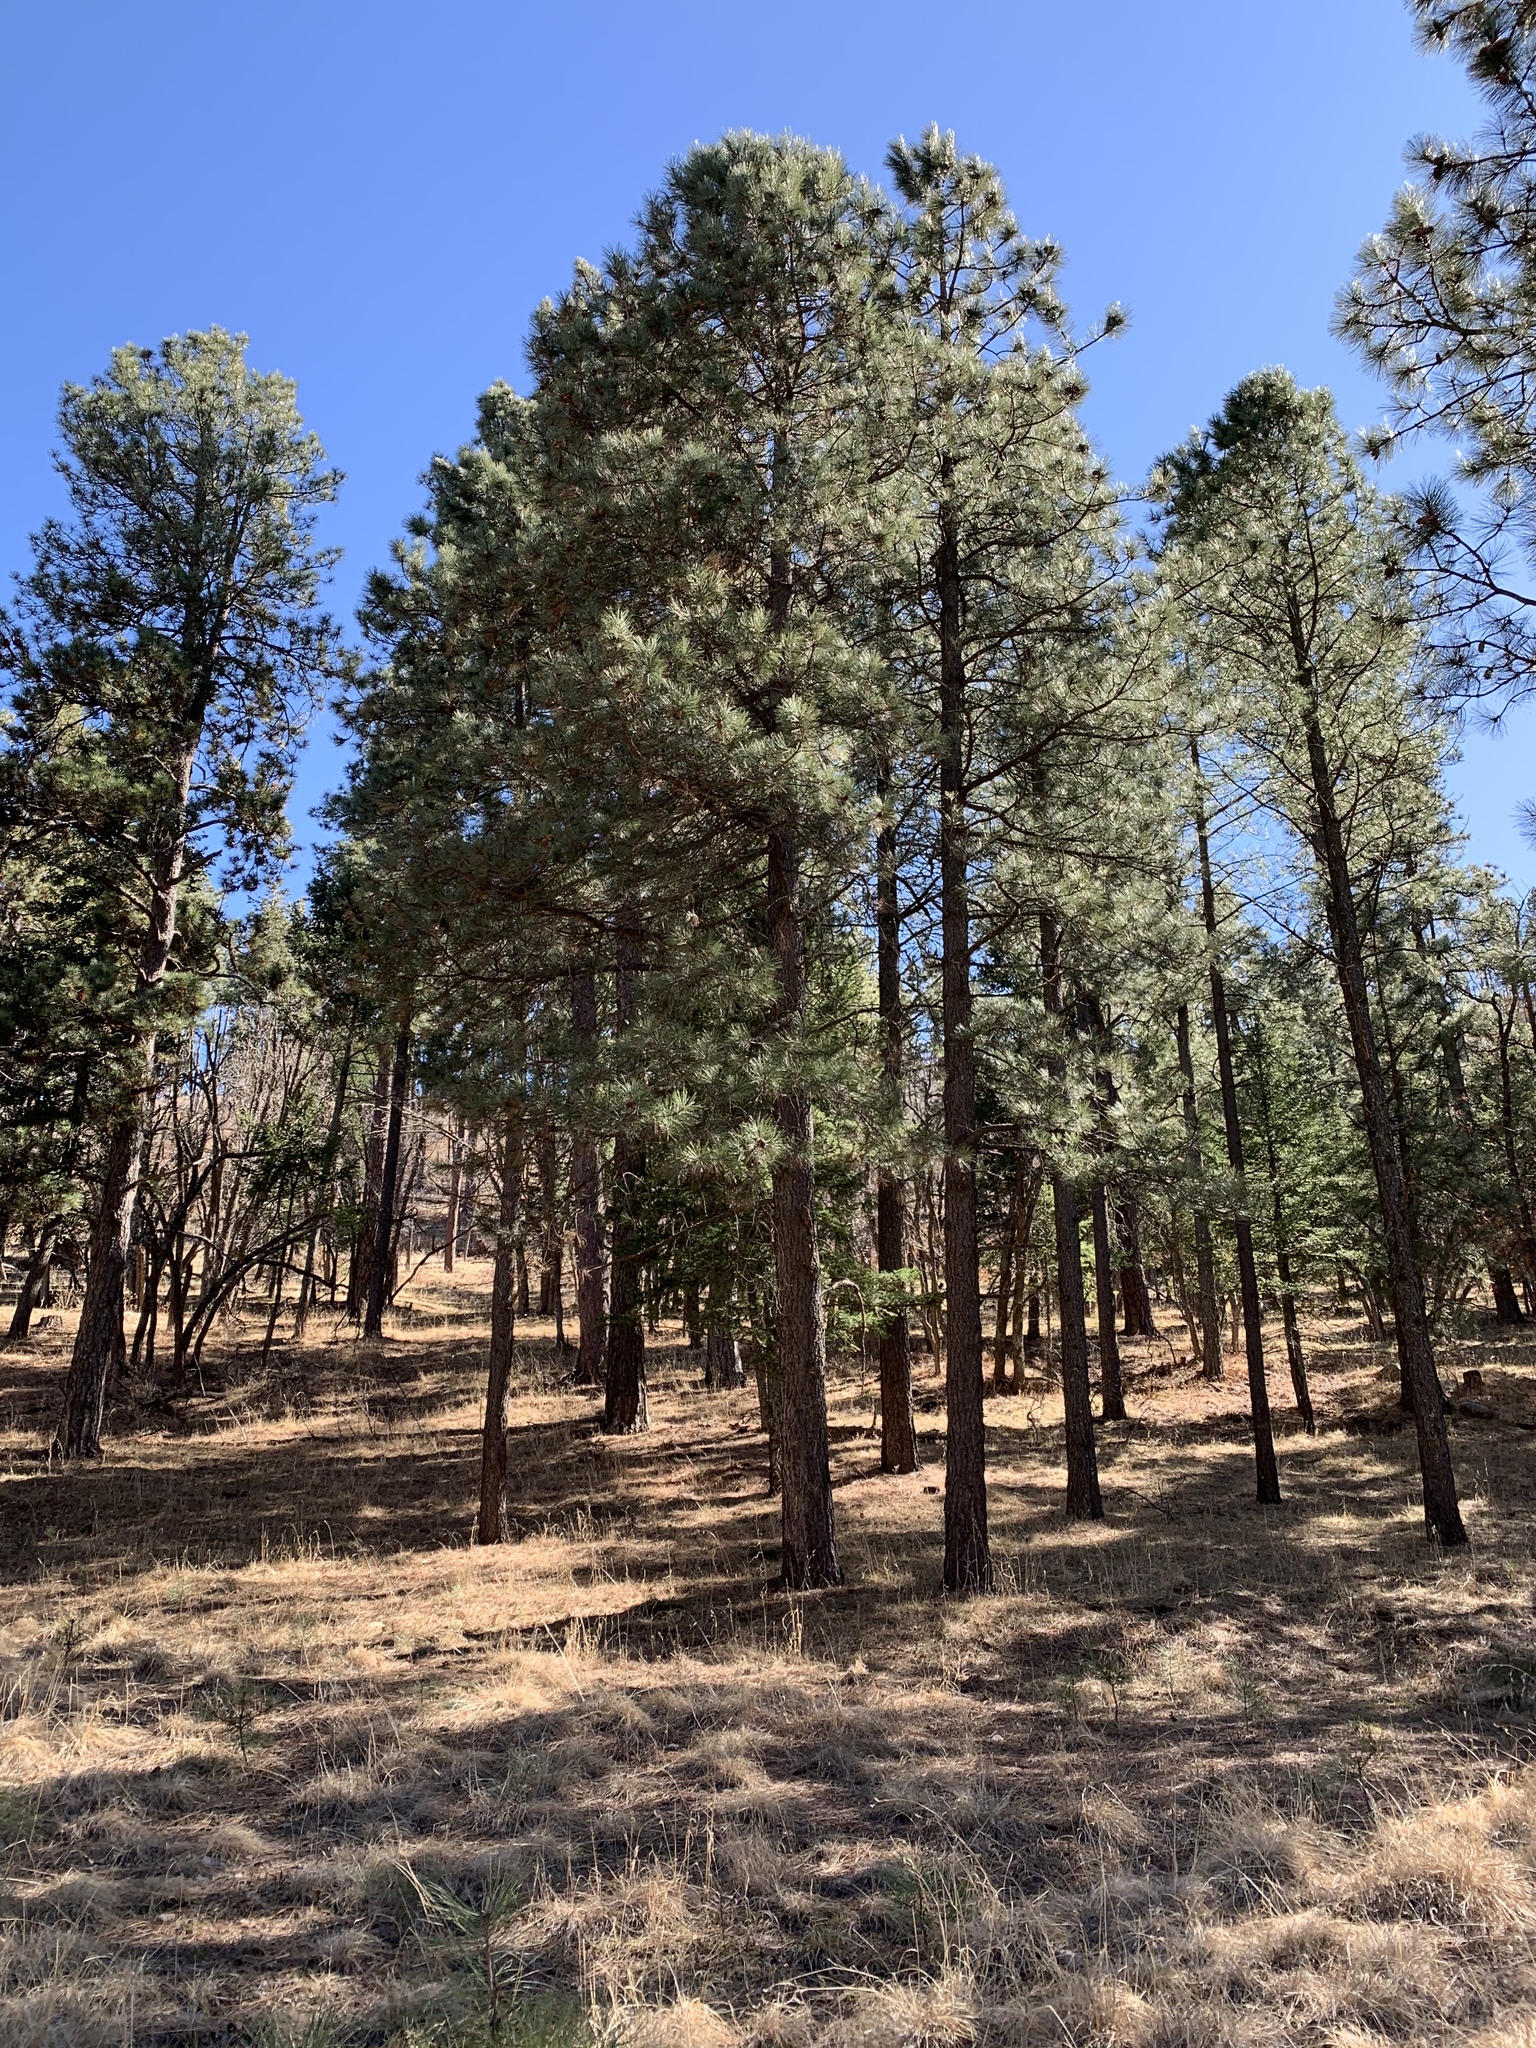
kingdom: Plantae
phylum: Tracheophyta
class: Pinopsida
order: Pinales
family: Pinaceae
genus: Pinus
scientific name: Pinus ponderosa
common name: Western yellow-pine
